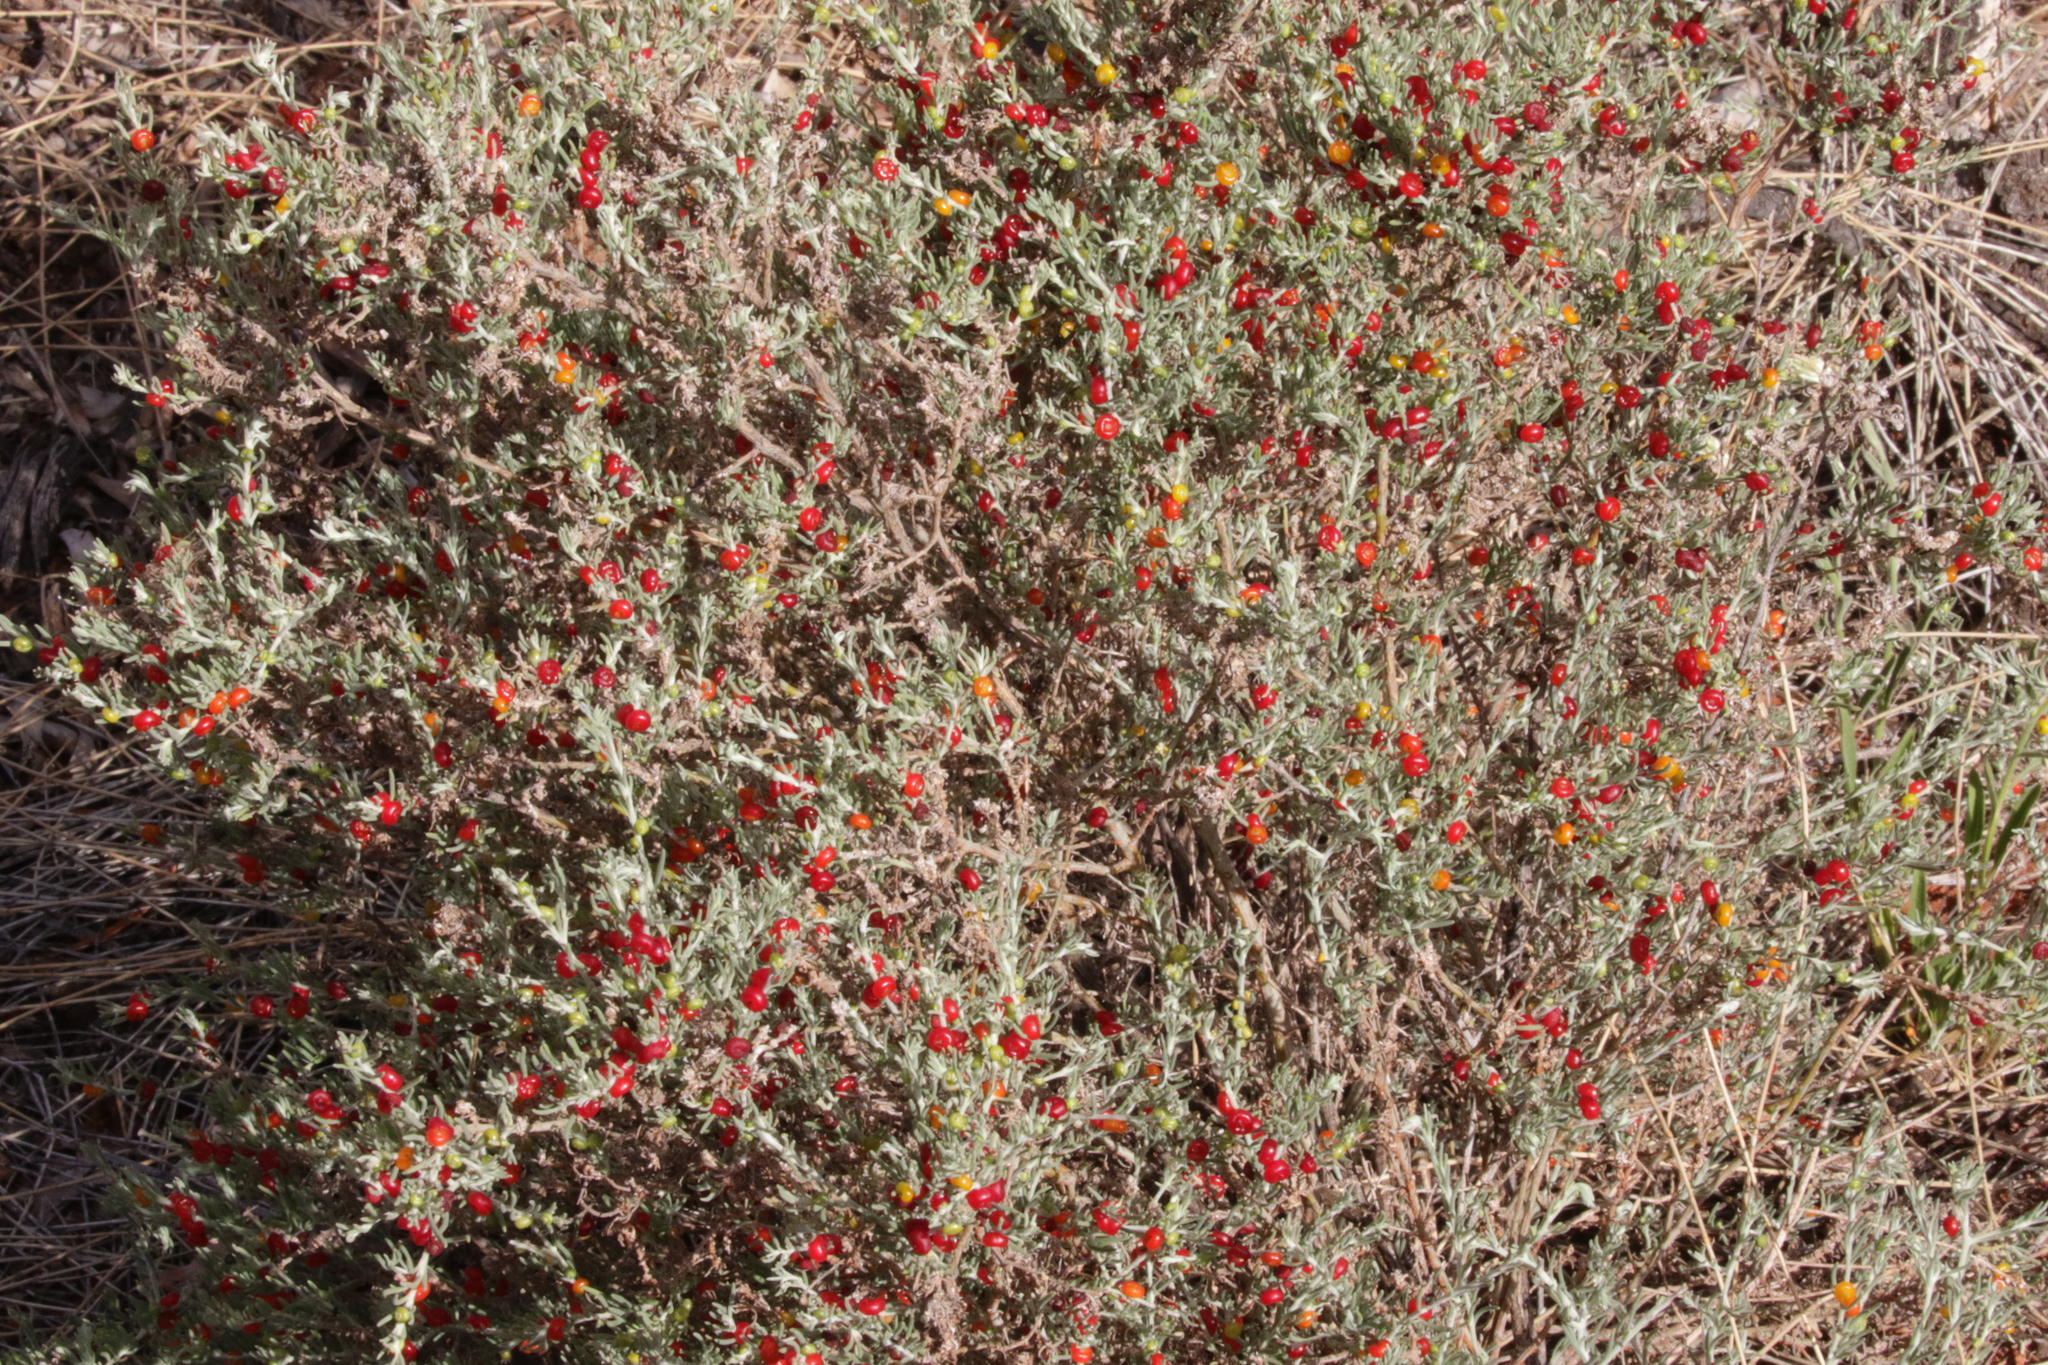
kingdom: Plantae
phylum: Tracheophyta
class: Magnoliopsida
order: Caryophyllales
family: Amaranthaceae
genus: Enchylaena
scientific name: Enchylaena tomentosa
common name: Ruby saltbush
